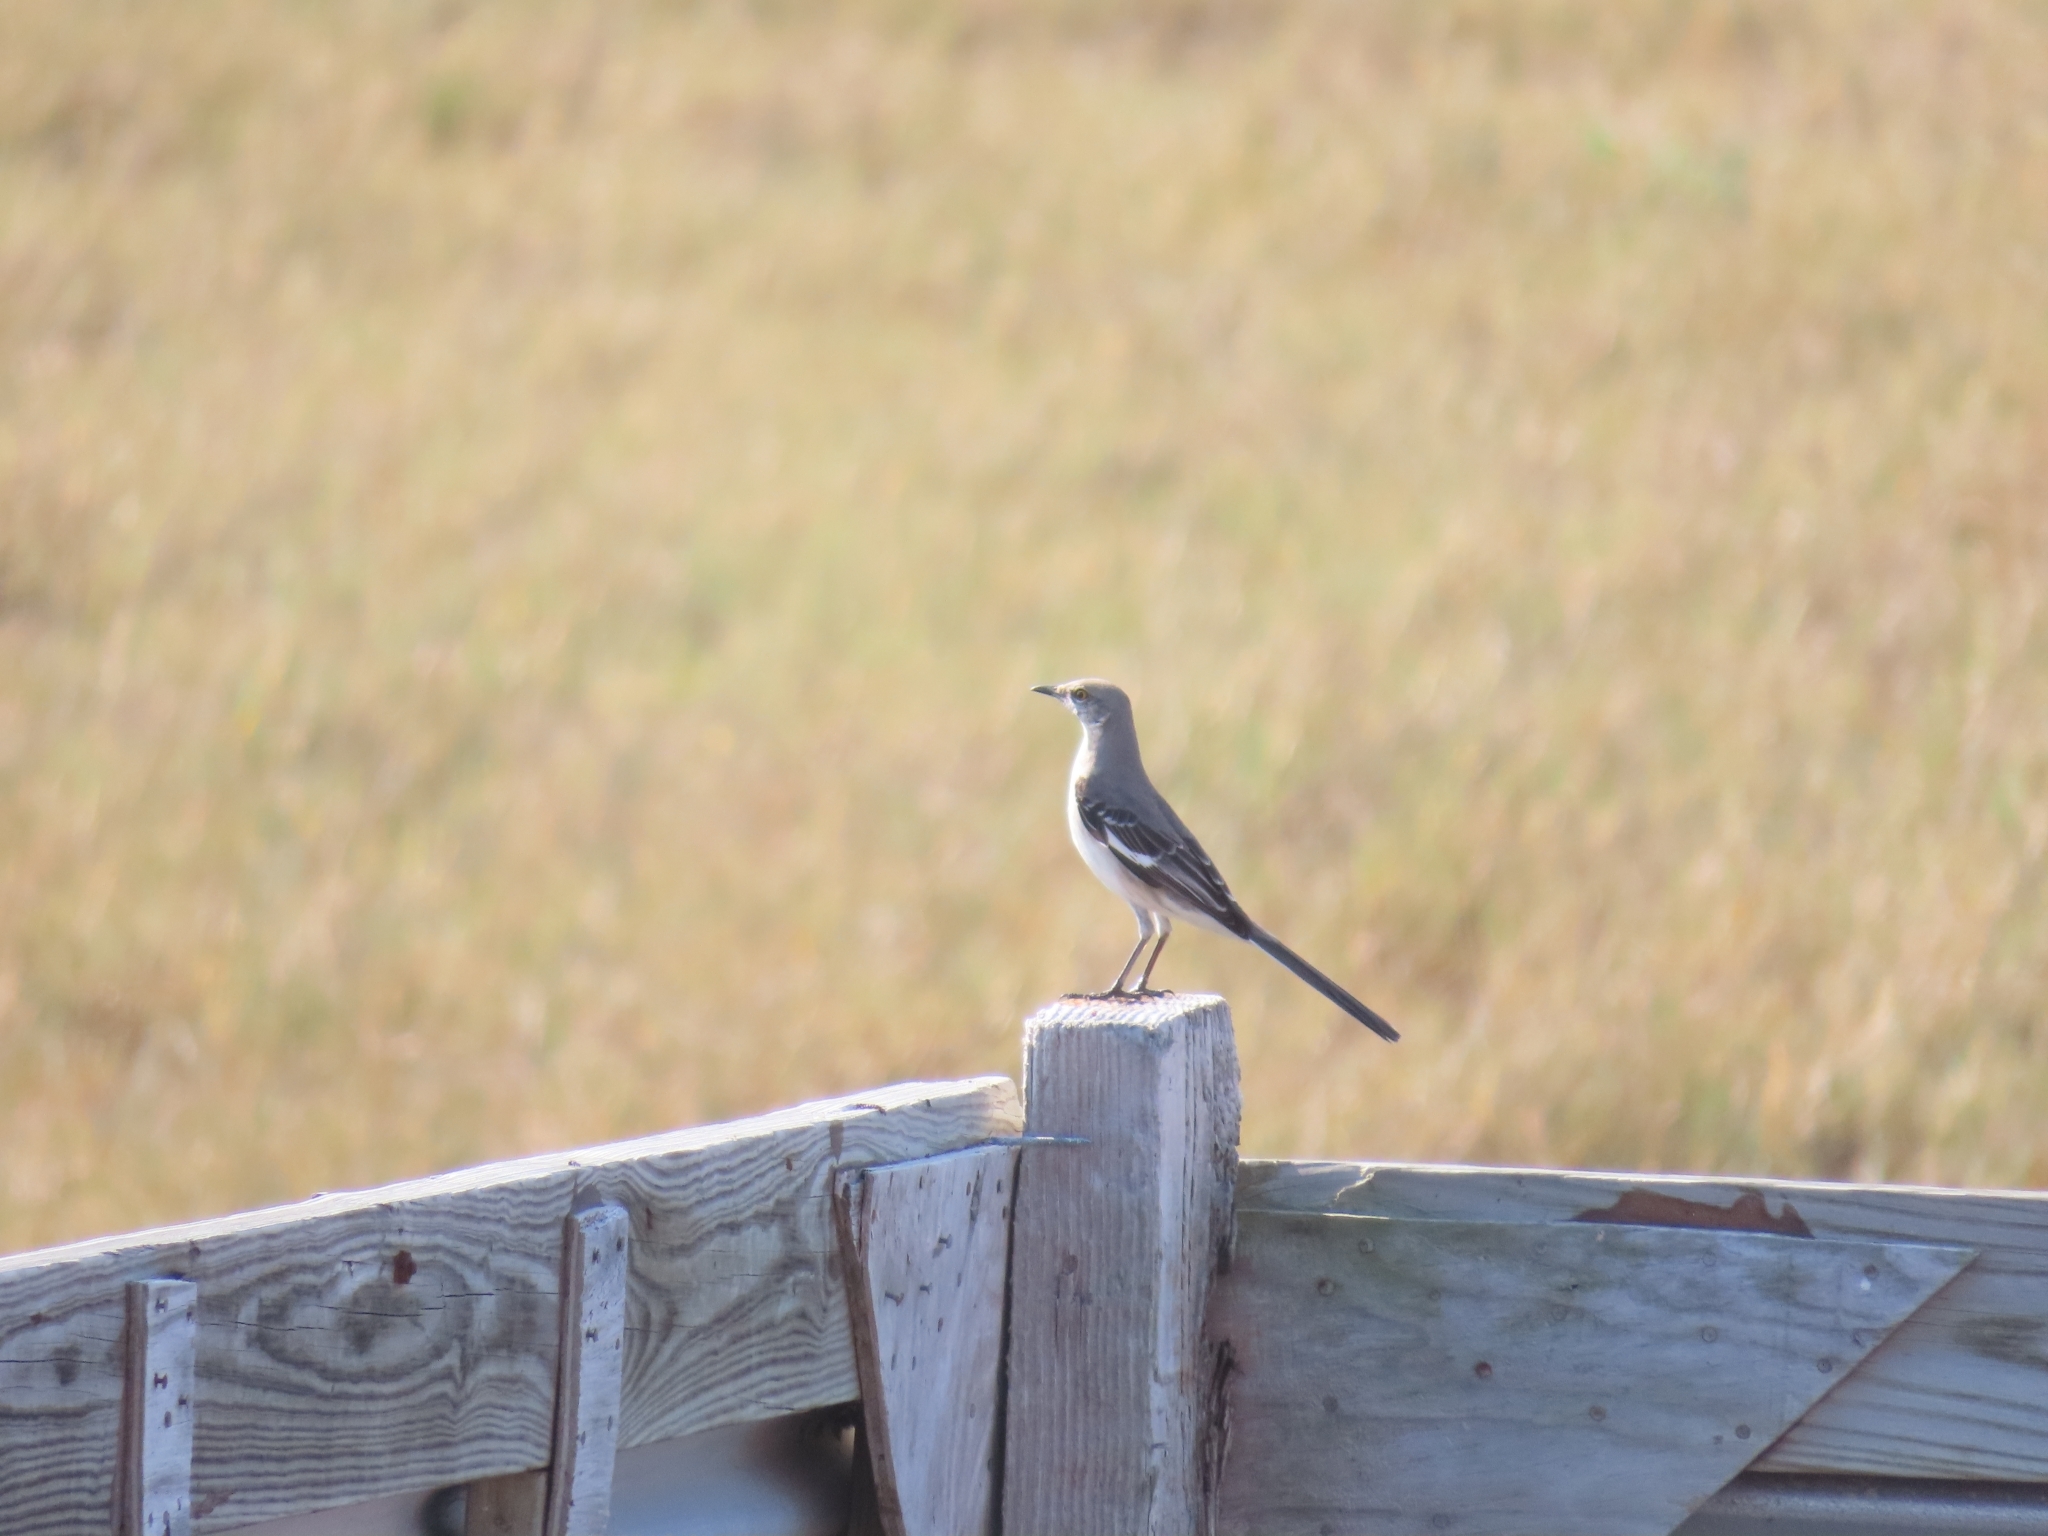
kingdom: Animalia
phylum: Chordata
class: Aves
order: Passeriformes
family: Mimidae
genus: Mimus
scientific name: Mimus polyglottos
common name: Northern mockingbird
